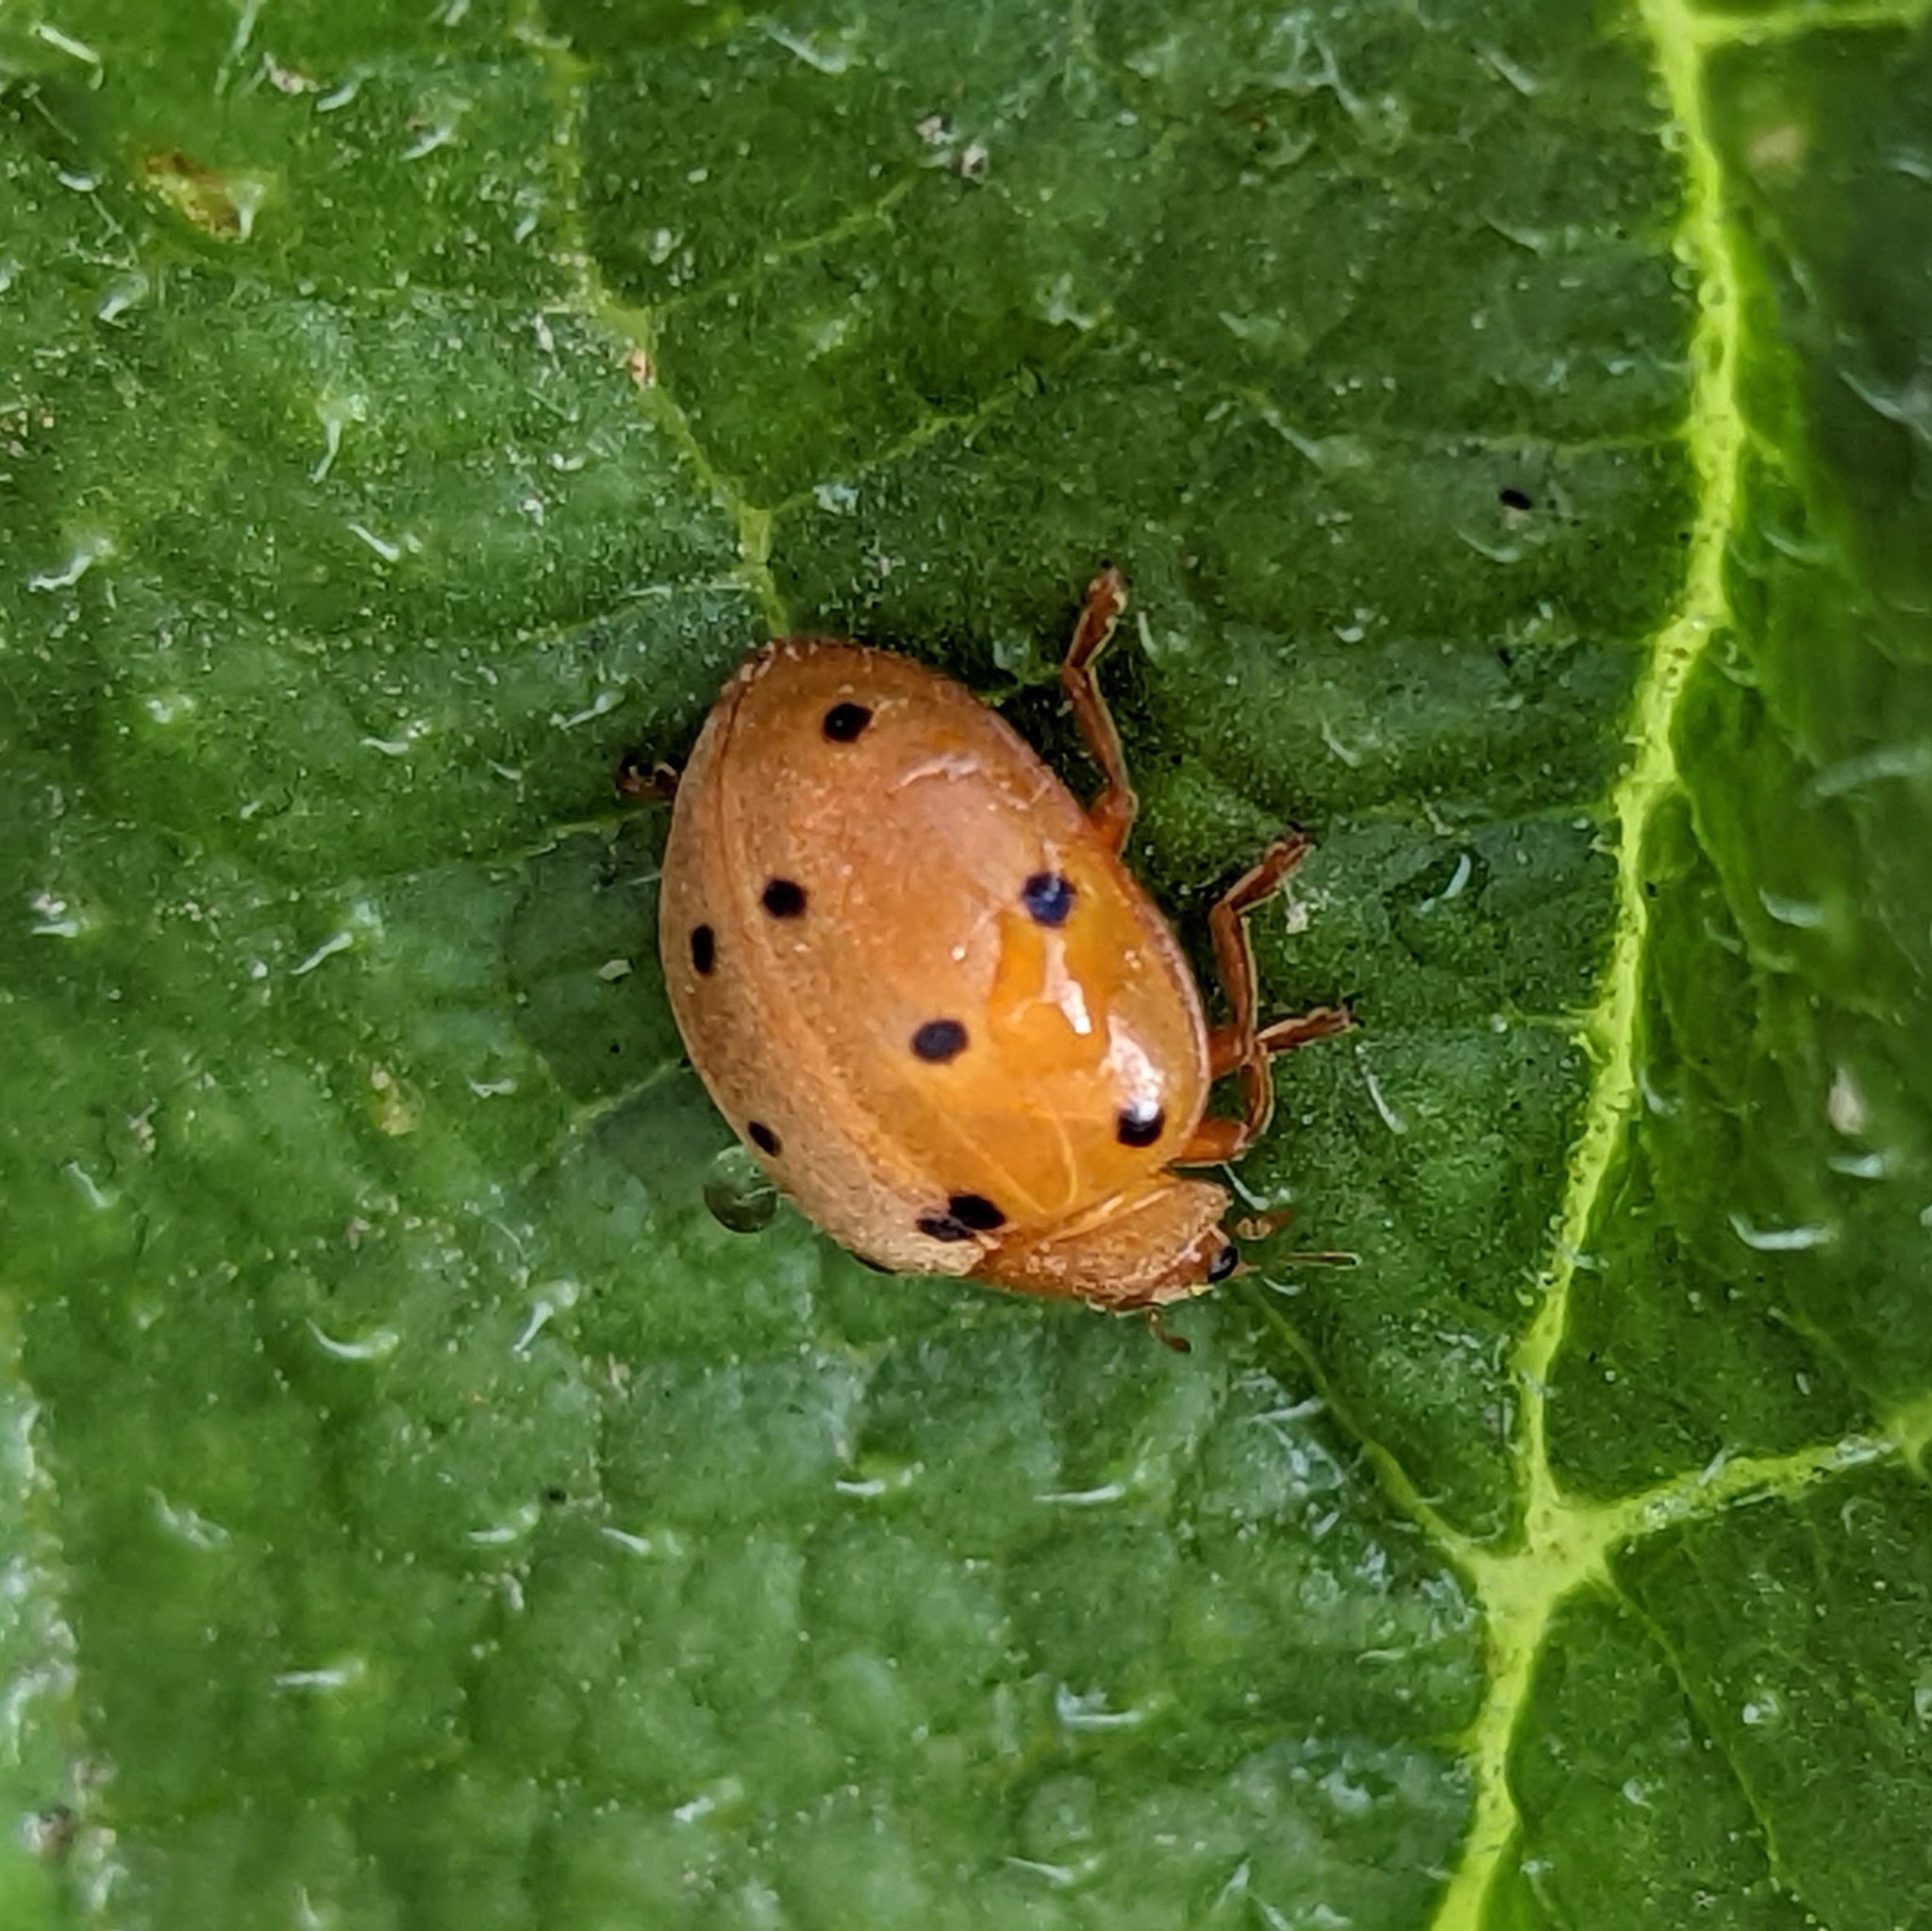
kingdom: Animalia
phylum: Arthropoda
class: Insecta
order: Coleoptera
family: Coccinellidae
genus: Henosepilachna
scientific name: Henosepilachna argus
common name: Bryony ladybird
